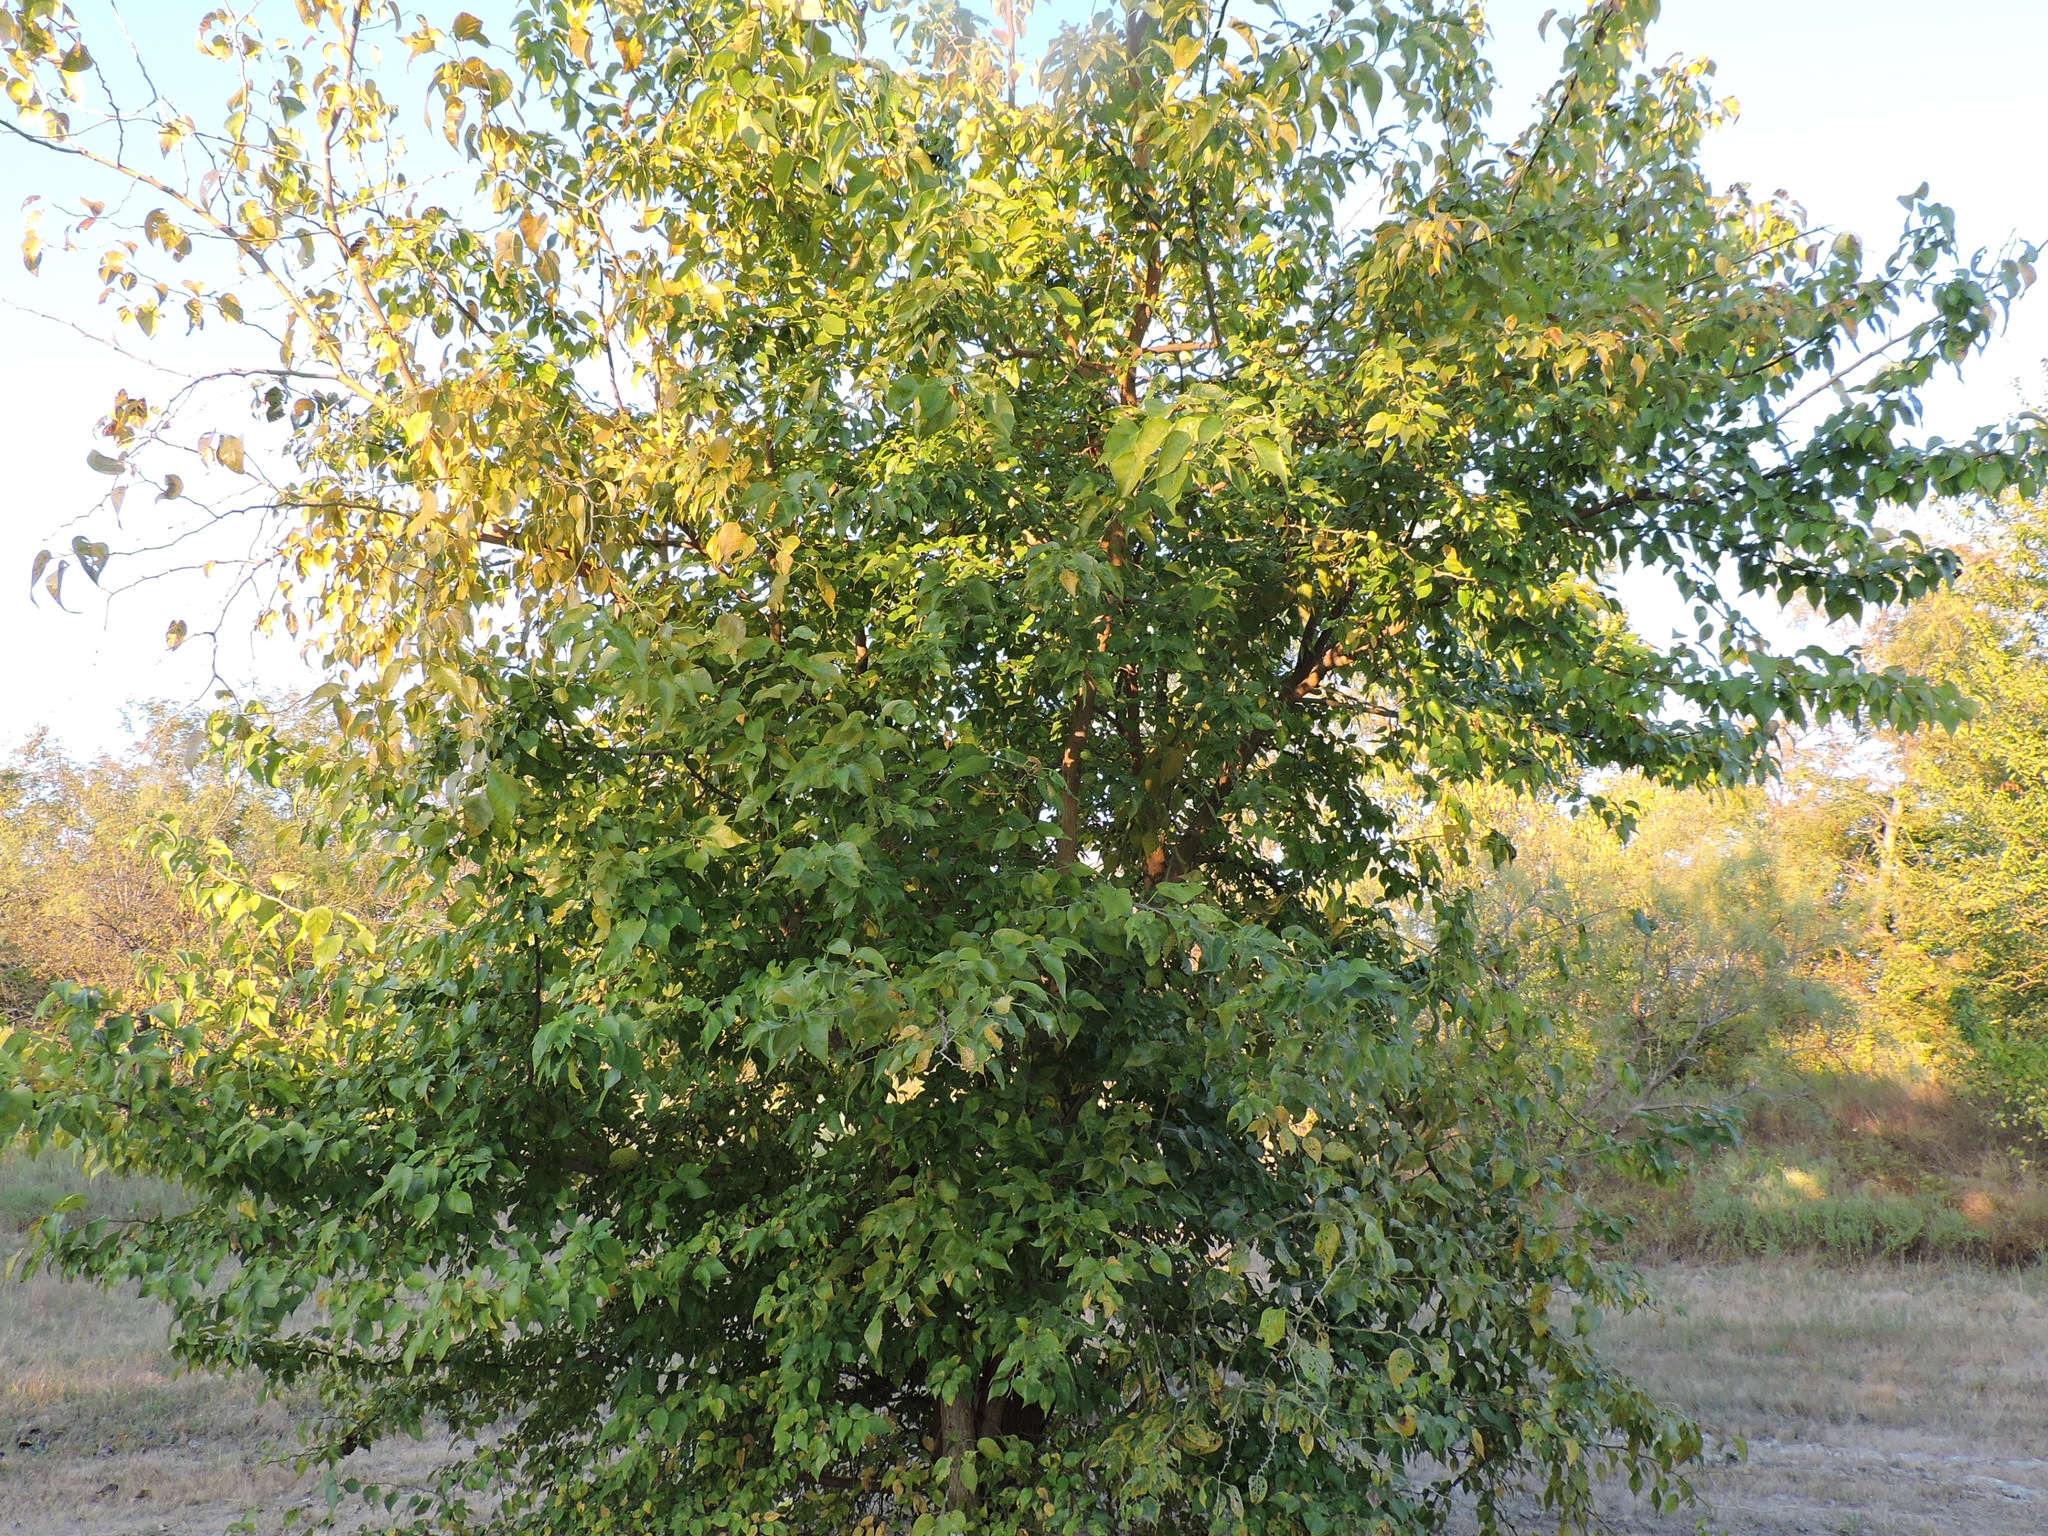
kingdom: Plantae
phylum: Tracheophyta
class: Magnoliopsida
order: Rosales
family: Moraceae
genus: Maclura
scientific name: Maclura pomifera
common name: Osage-orange
